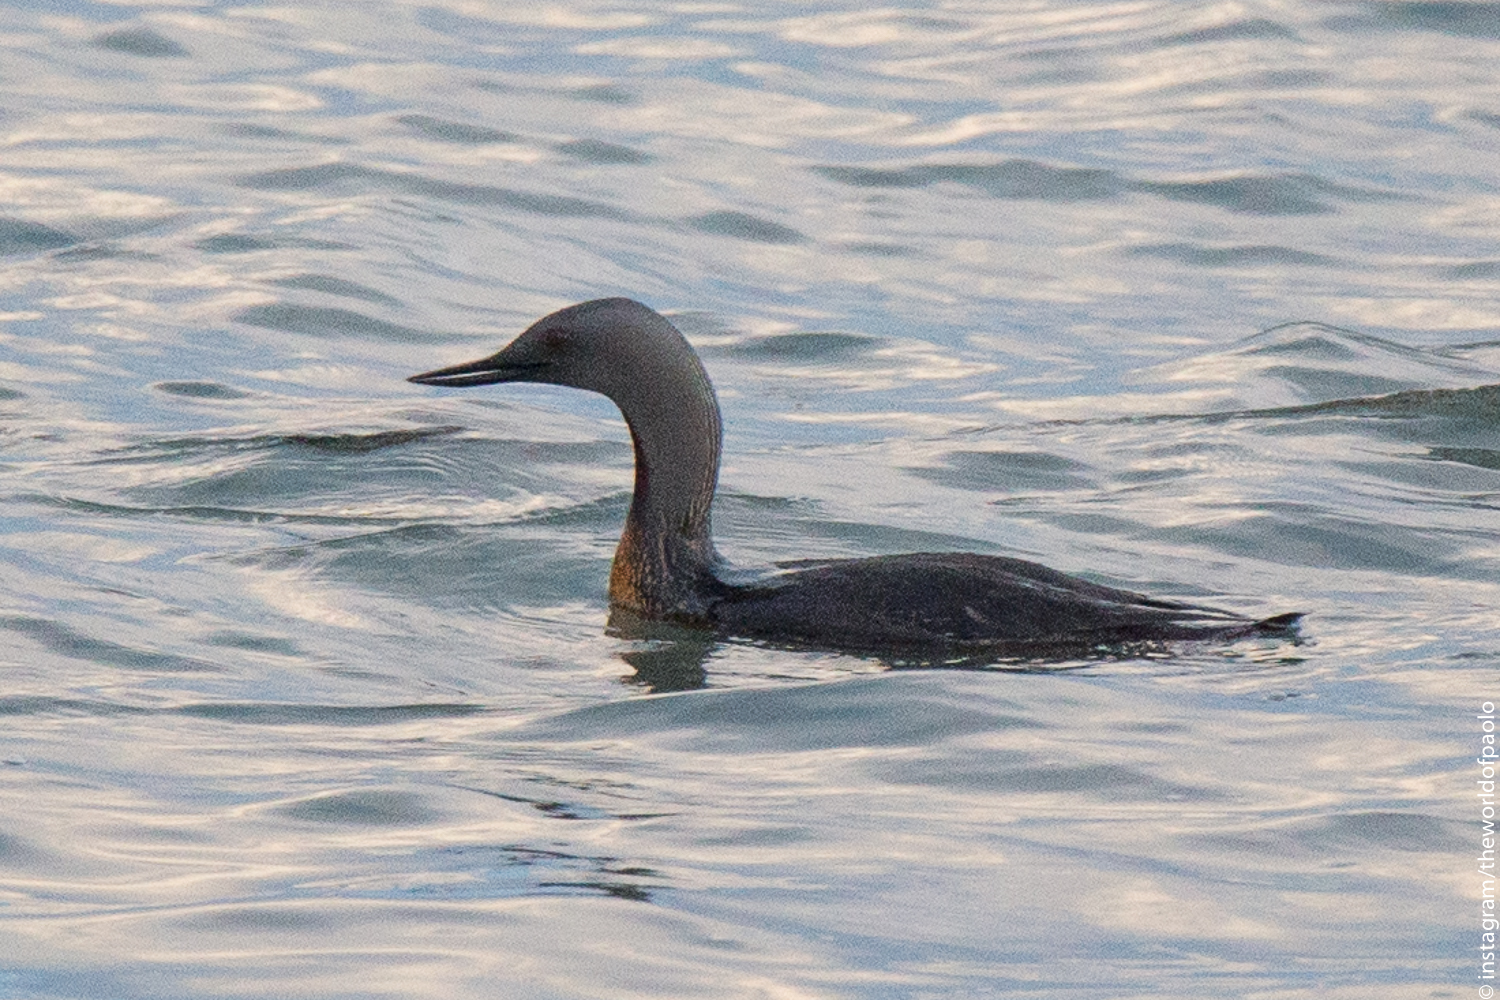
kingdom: Animalia
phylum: Chordata
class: Aves
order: Gaviiformes
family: Gaviidae
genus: Gavia
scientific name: Gavia stellata
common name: Red-throated loon
